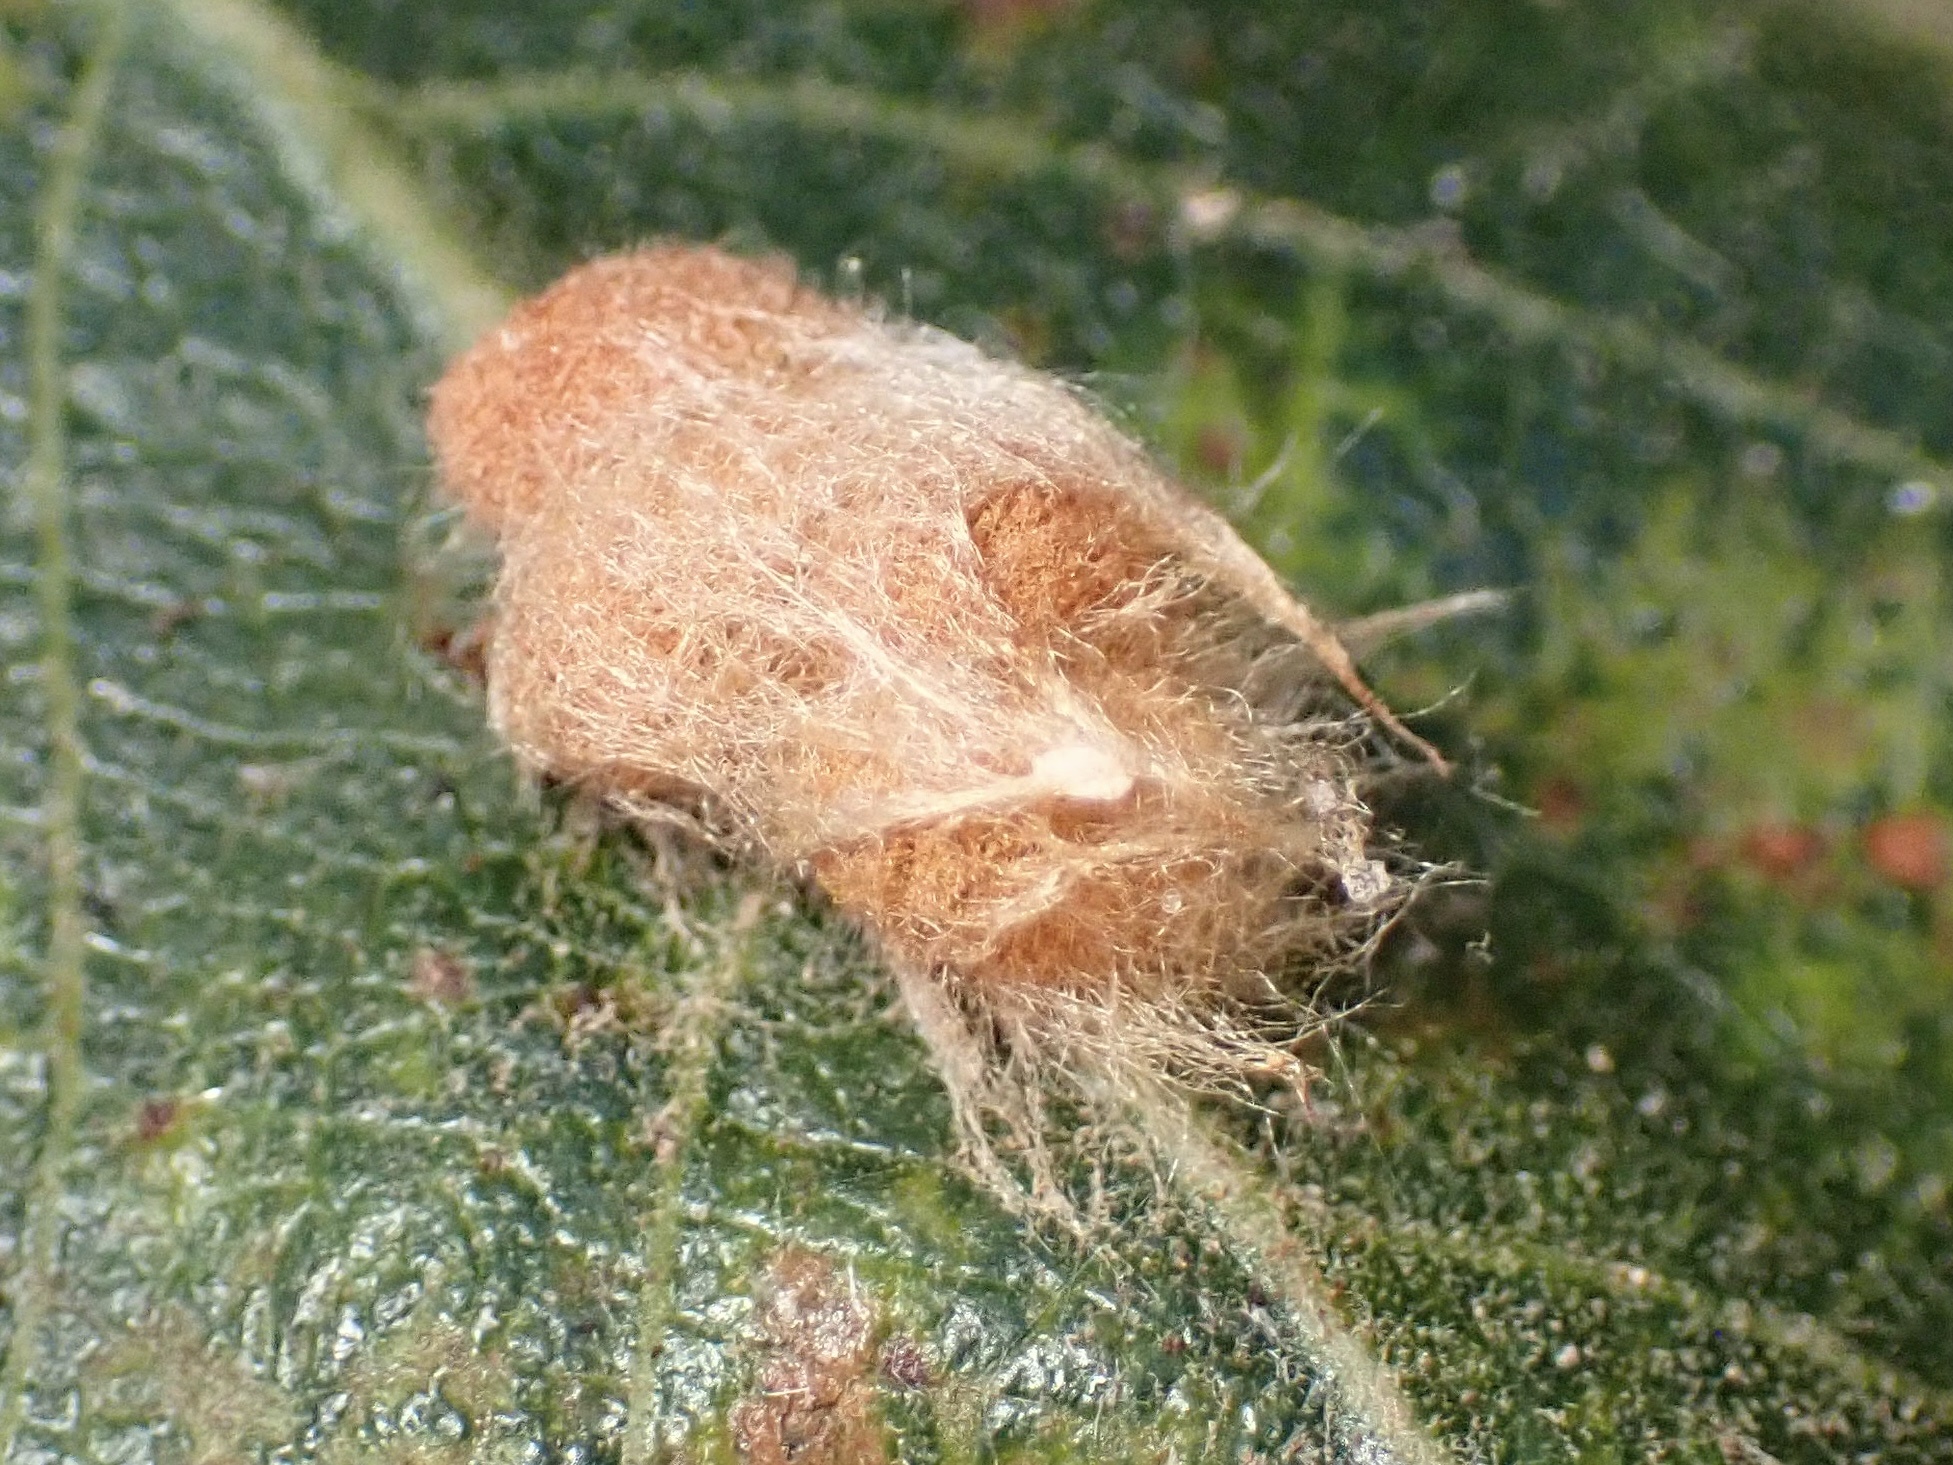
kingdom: Animalia
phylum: Arthropoda
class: Insecta
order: Hymenoptera
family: Cynipidae
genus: Andricus
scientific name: Andricus Druon fullawayi
